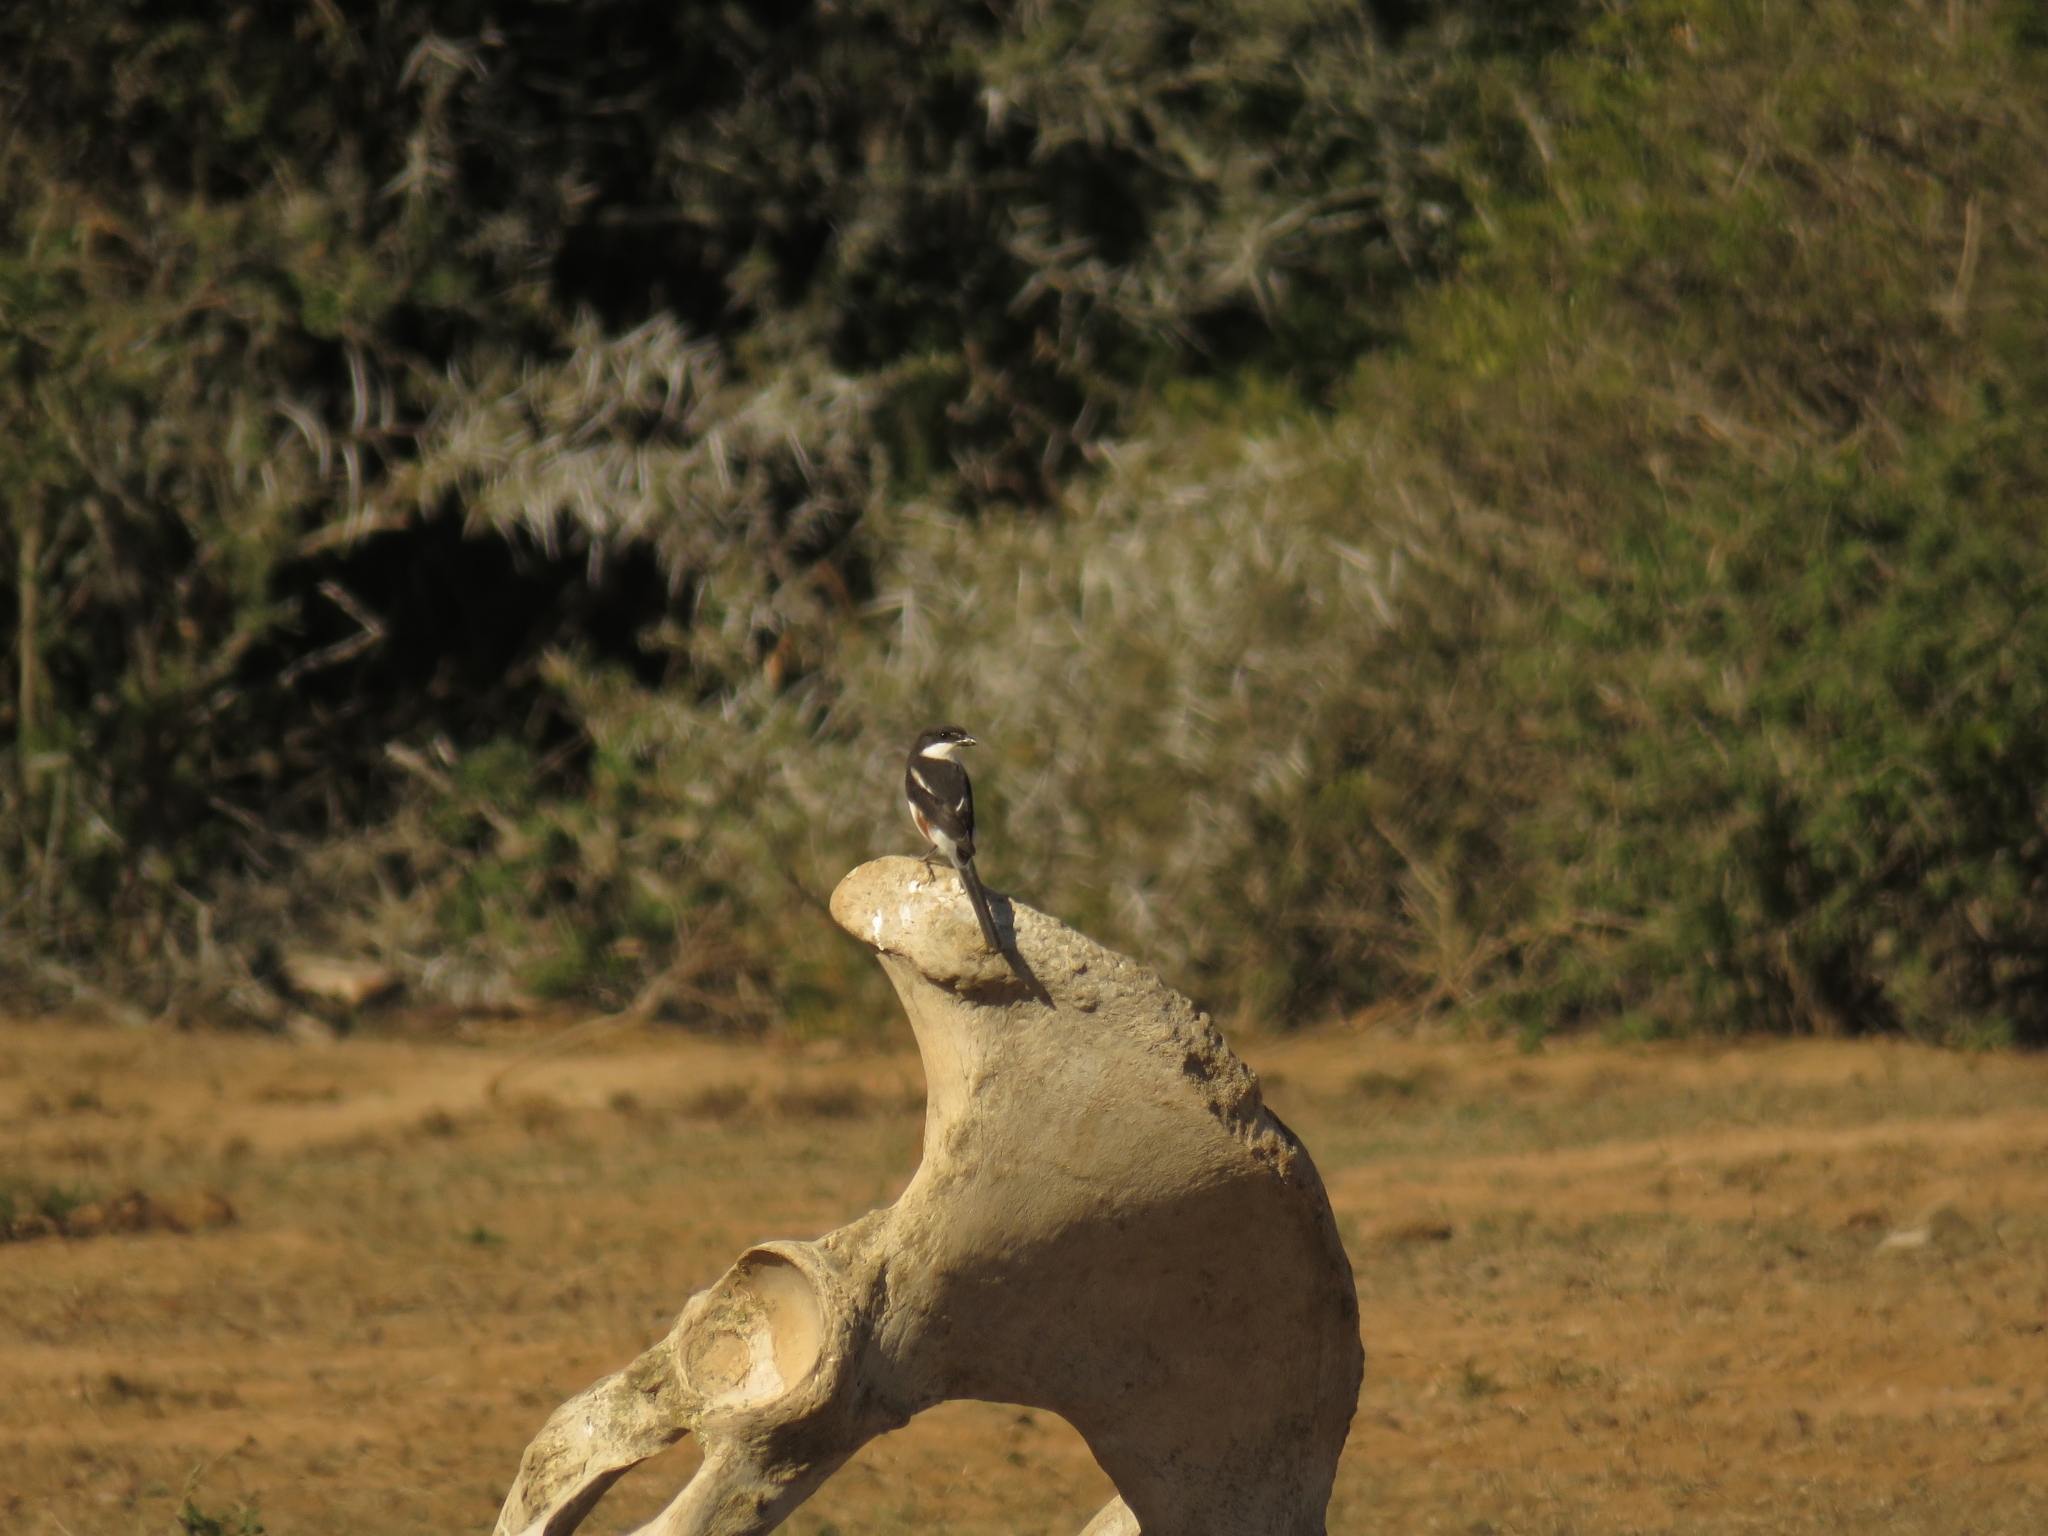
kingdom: Animalia
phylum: Chordata
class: Aves
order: Passeriformes
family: Laniidae
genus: Lanius
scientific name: Lanius collaris
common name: Southern fiscal
